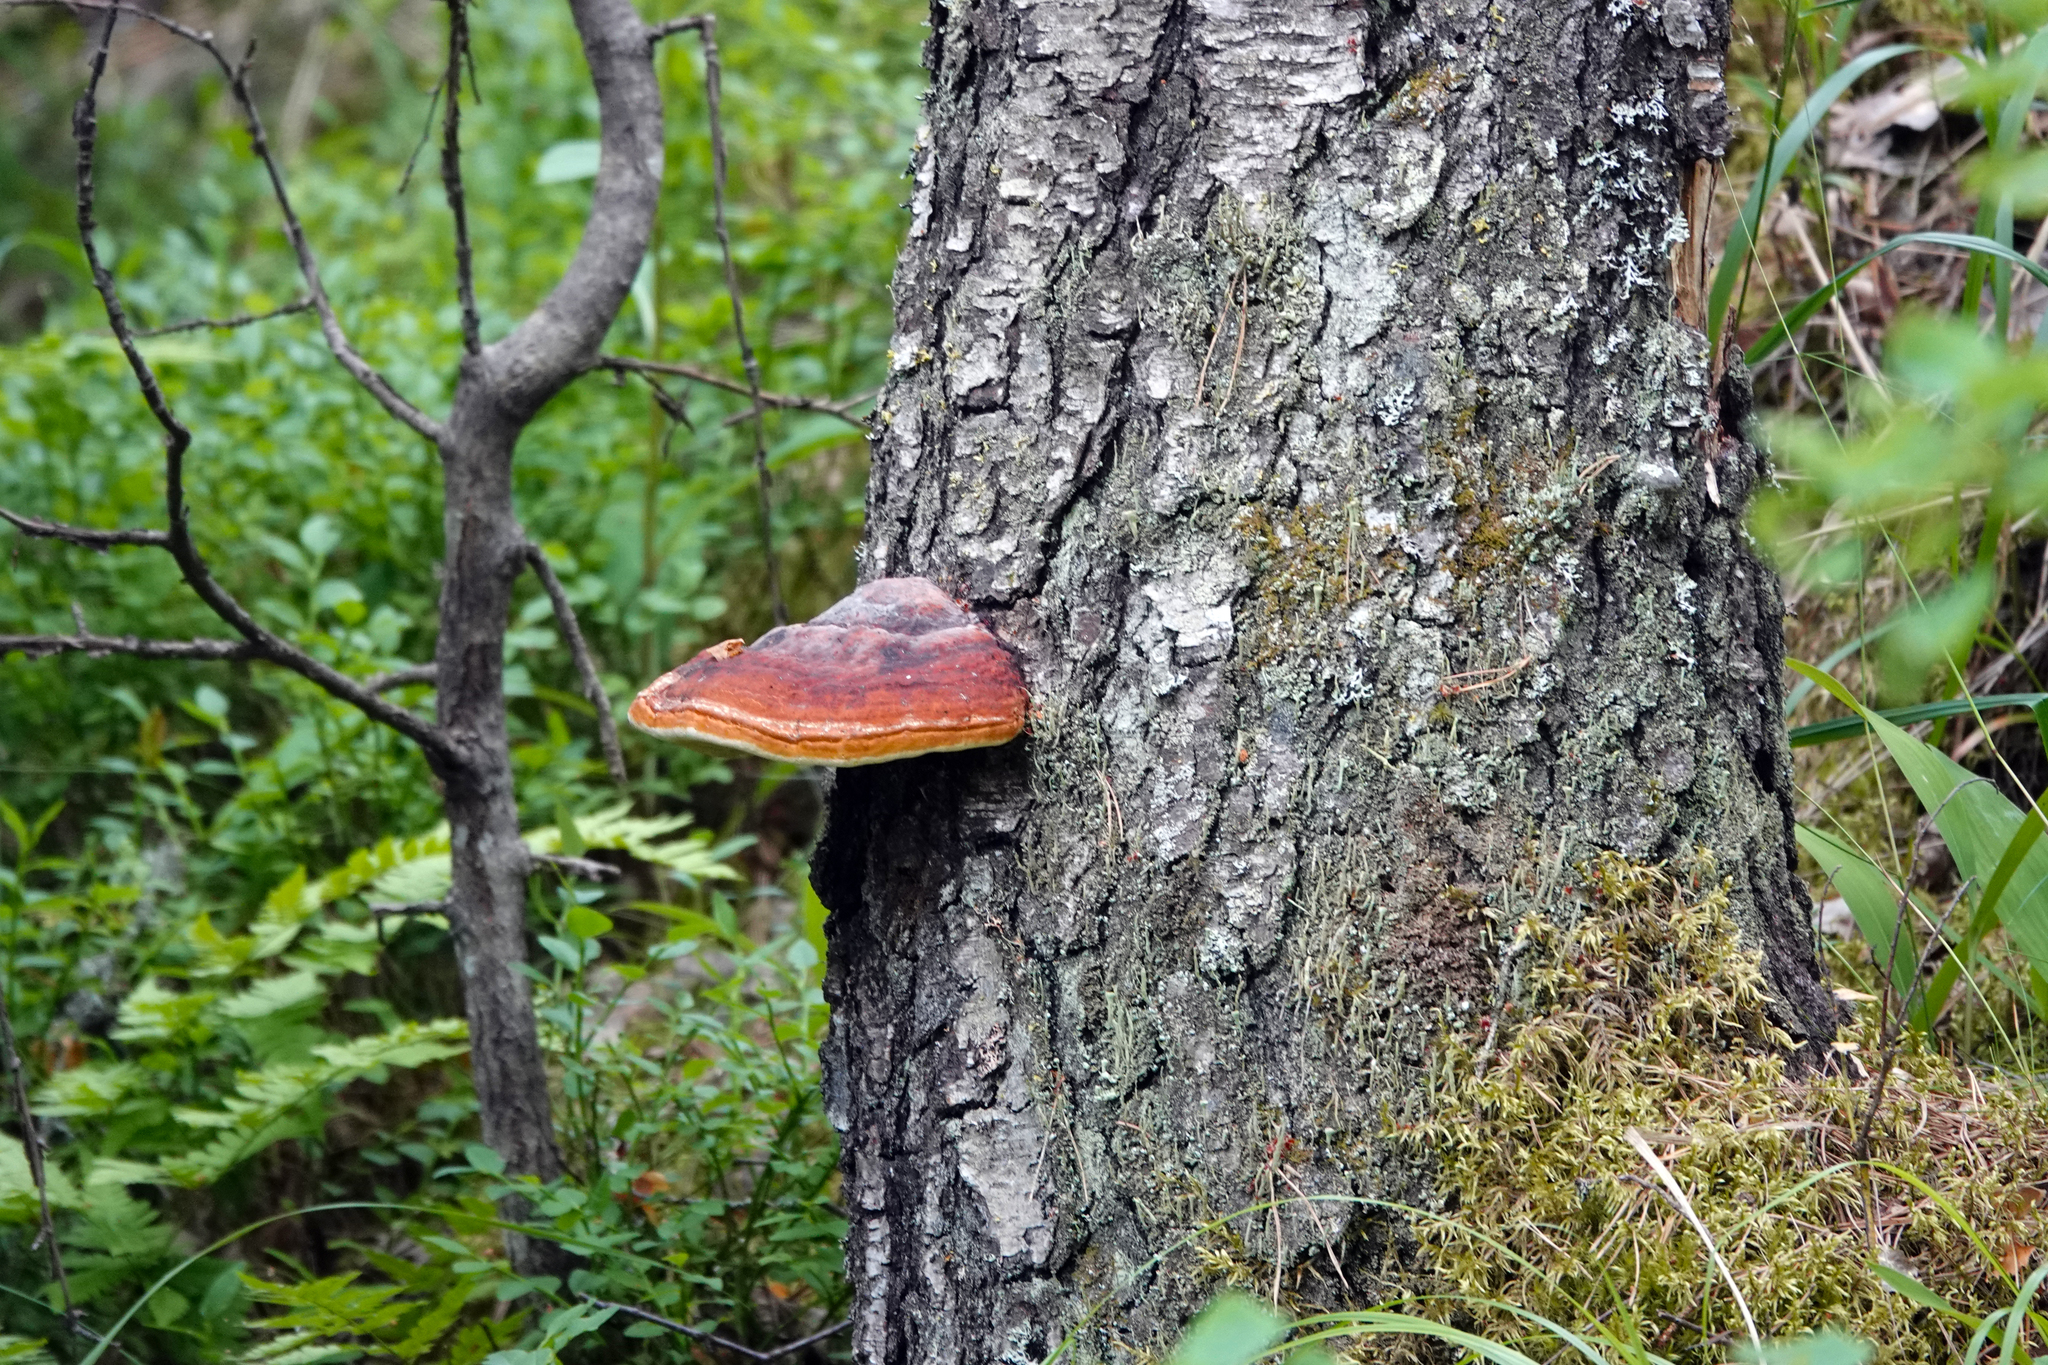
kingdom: Fungi
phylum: Basidiomycota
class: Agaricomycetes
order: Polyporales
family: Fomitopsidaceae
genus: Fomitopsis
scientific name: Fomitopsis pinicola
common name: Red-belted bracket
